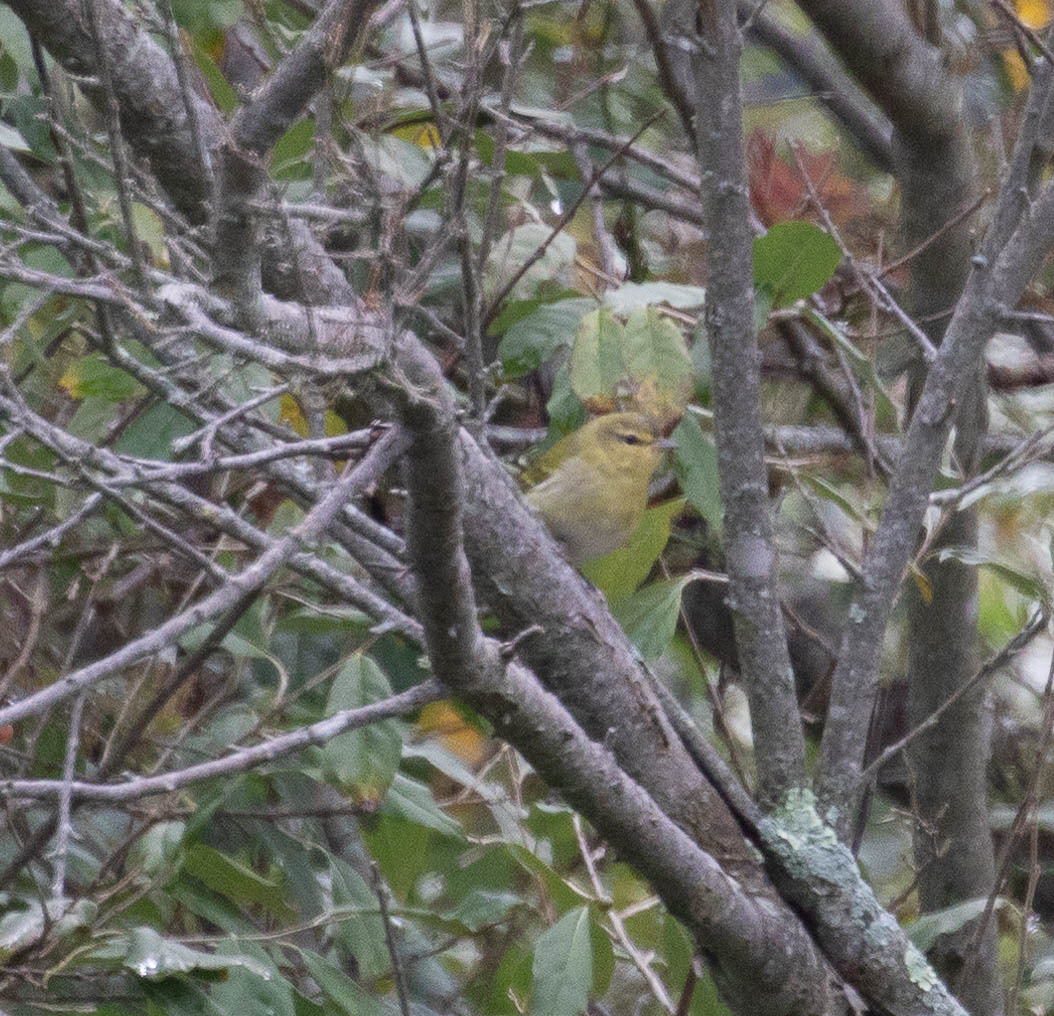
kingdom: Animalia
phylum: Chordata
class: Aves
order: Passeriformes
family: Parulidae
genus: Leiothlypis
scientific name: Leiothlypis peregrina
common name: Tennessee warbler
